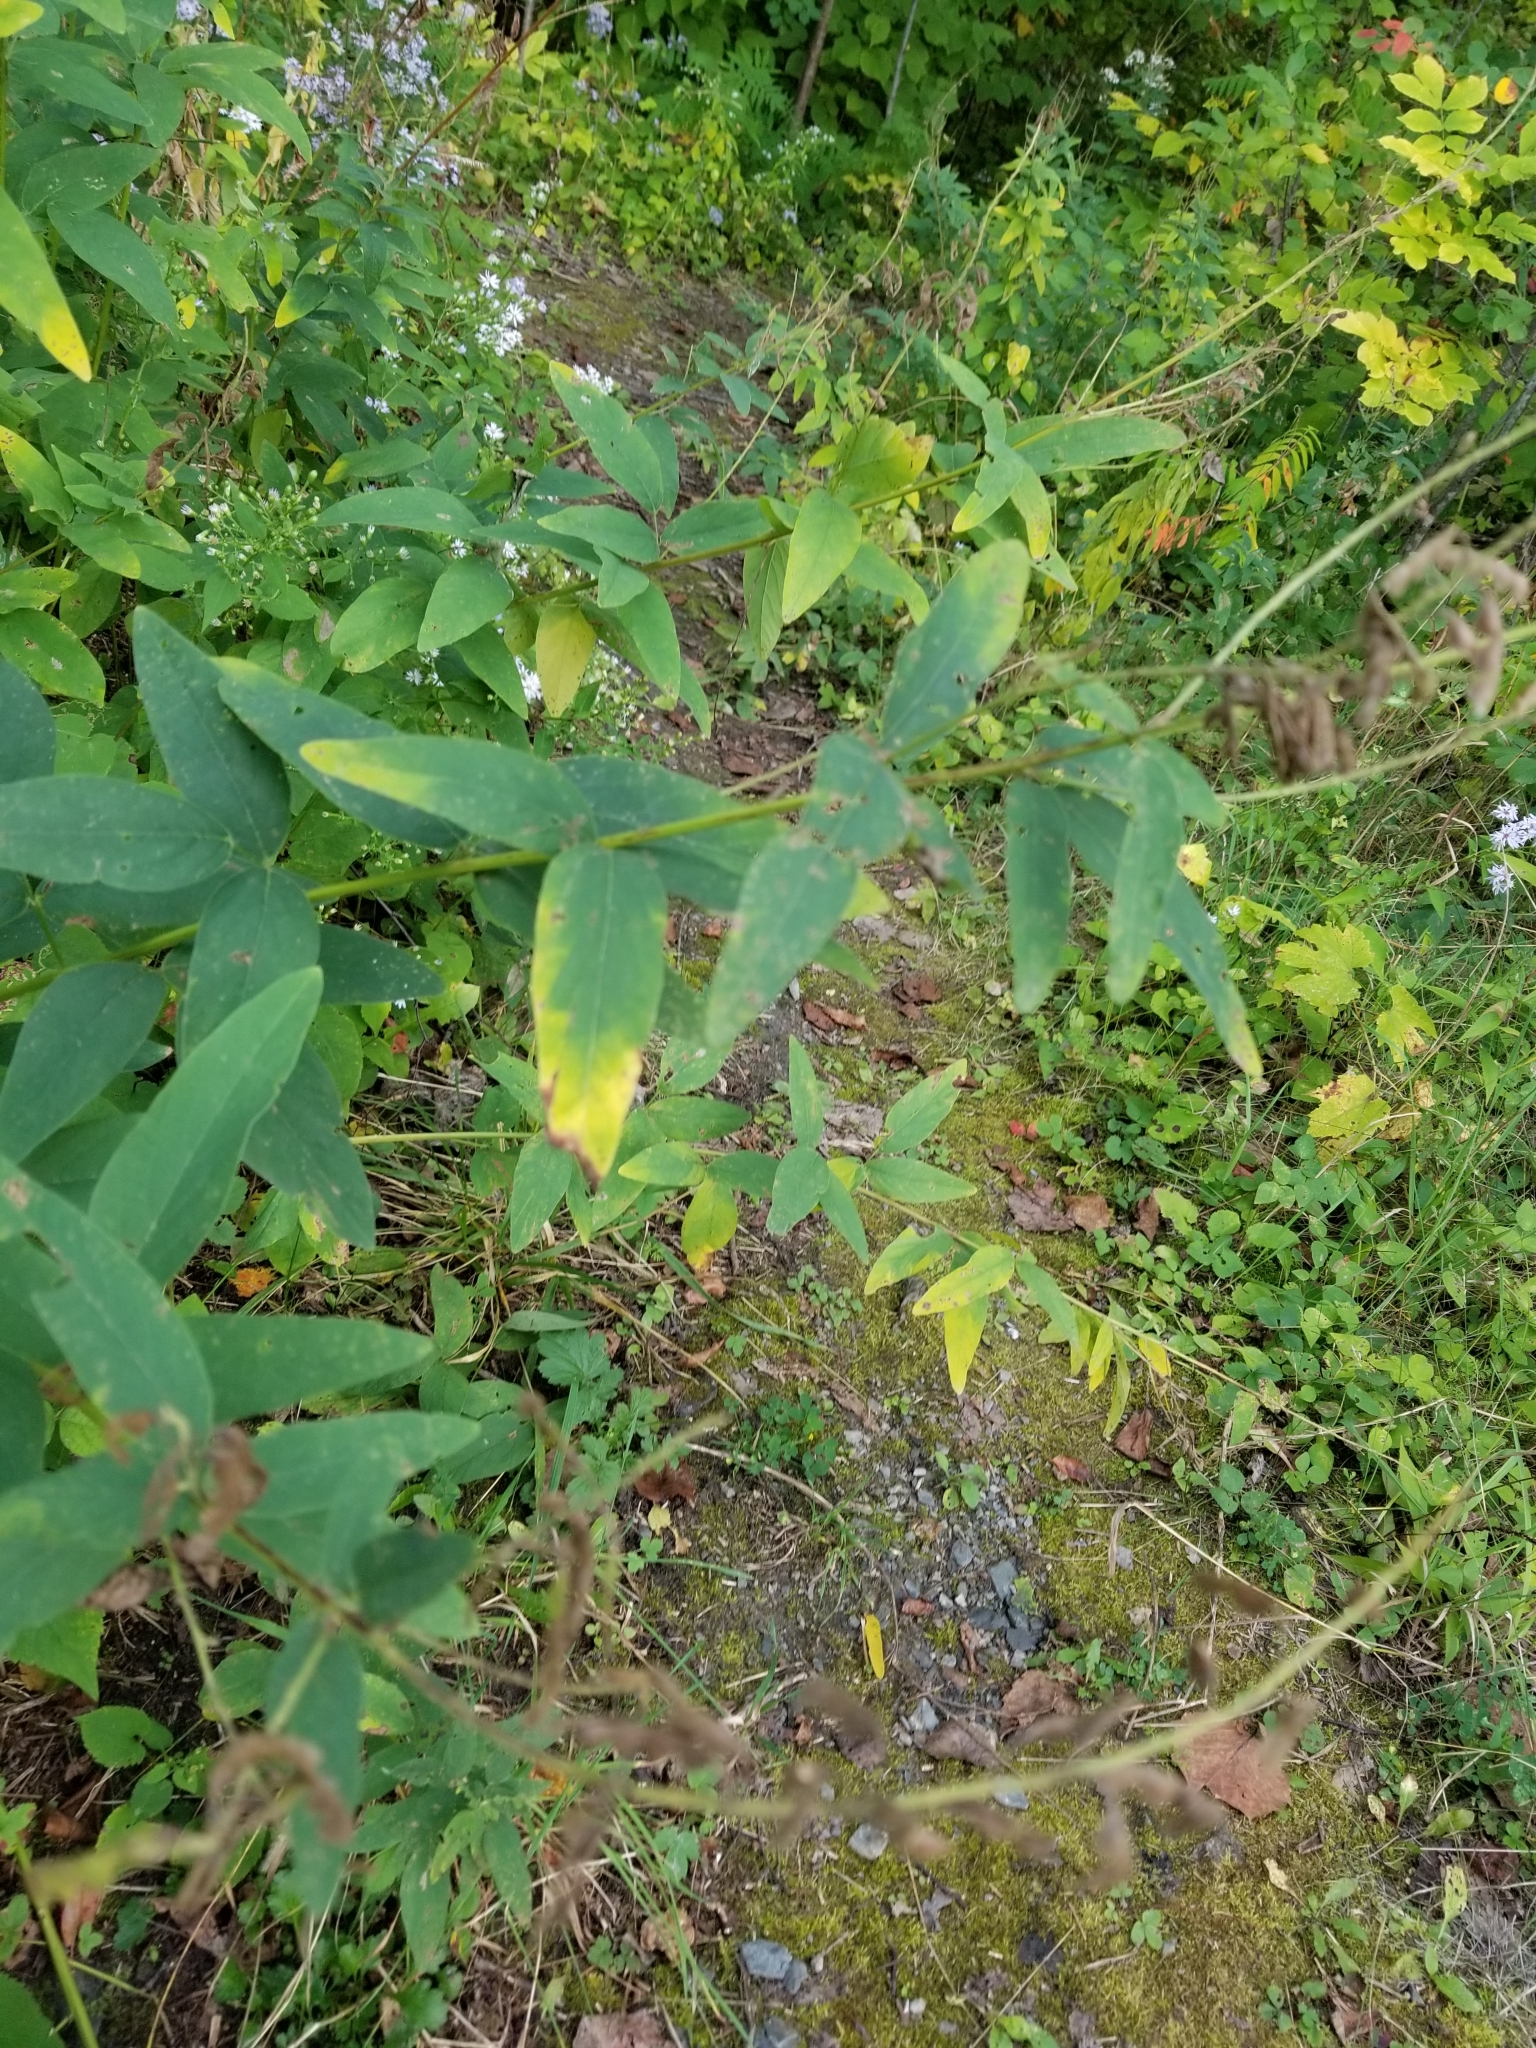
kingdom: Plantae
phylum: Tracheophyta
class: Magnoliopsida
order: Fabales
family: Fabaceae
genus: Desmodium
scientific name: Desmodium canadense
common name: Canada tick-trefoil
